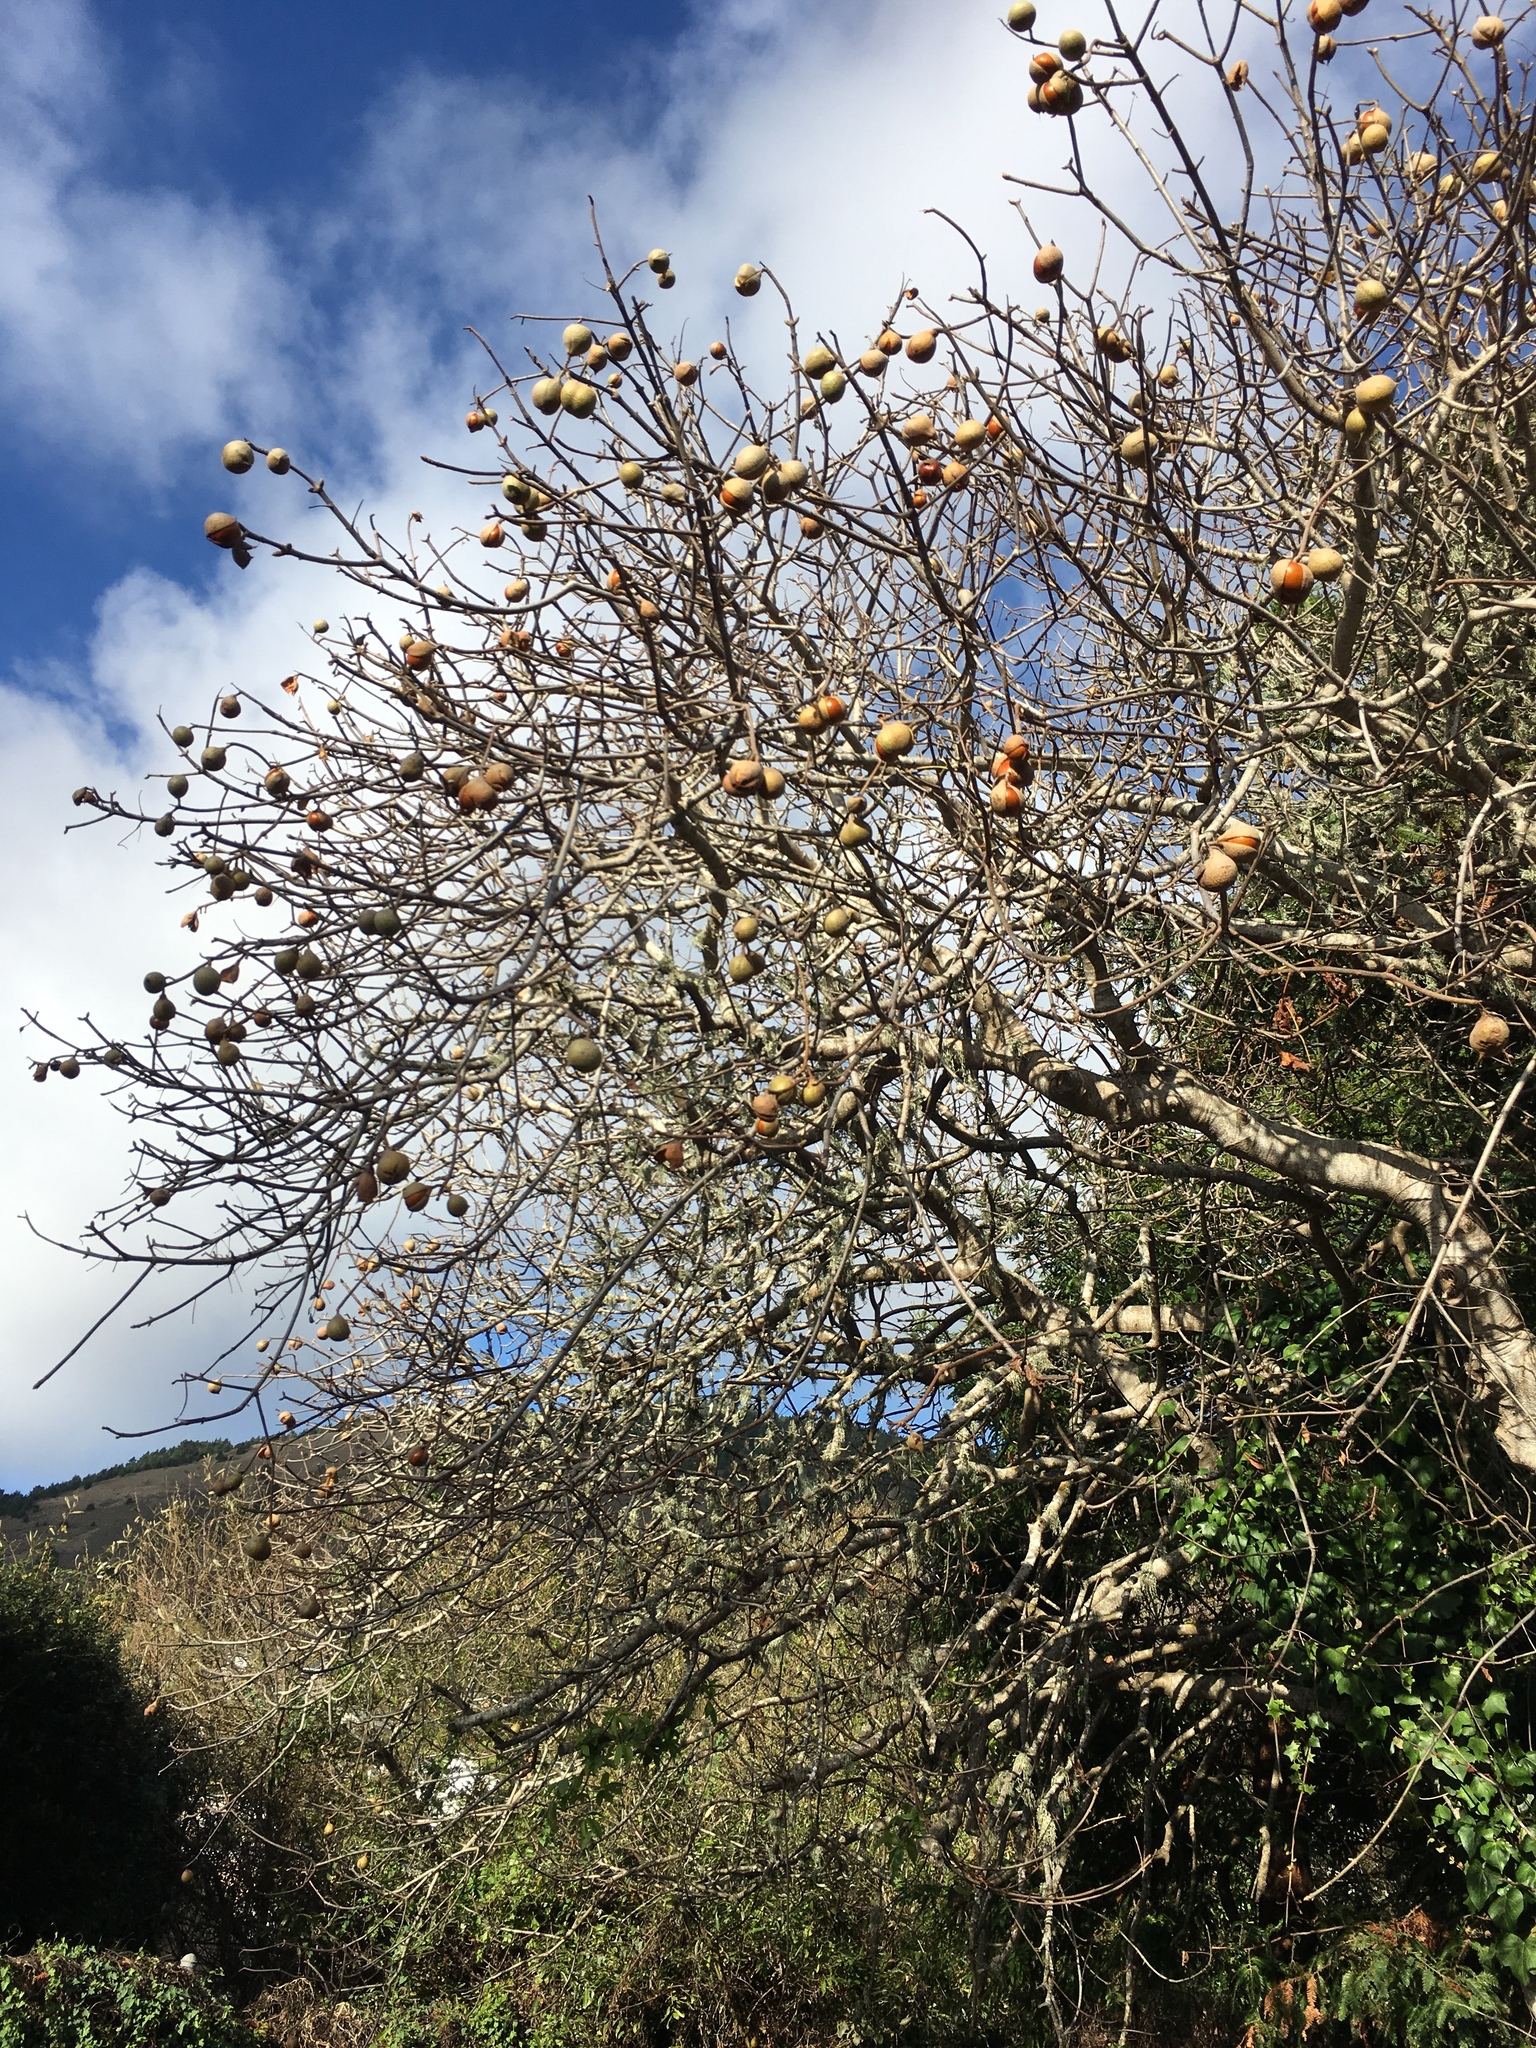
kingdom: Plantae
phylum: Tracheophyta
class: Magnoliopsida
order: Sapindales
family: Sapindaceae
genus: Aesculus
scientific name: Aesculus californica
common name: California buckeye
